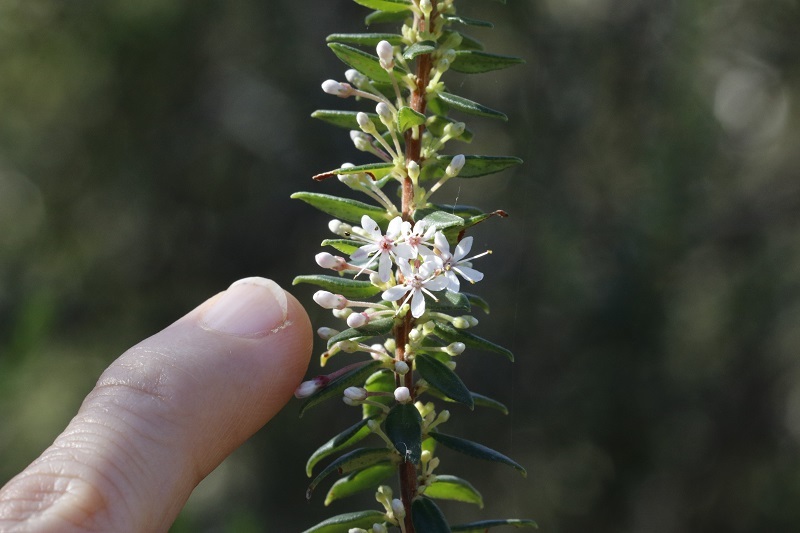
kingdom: Plantae
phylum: Tracheophyta
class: Magnoliopsida
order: Sapindales
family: Rutaceae
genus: Agathosma
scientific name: Agathosma ovata
